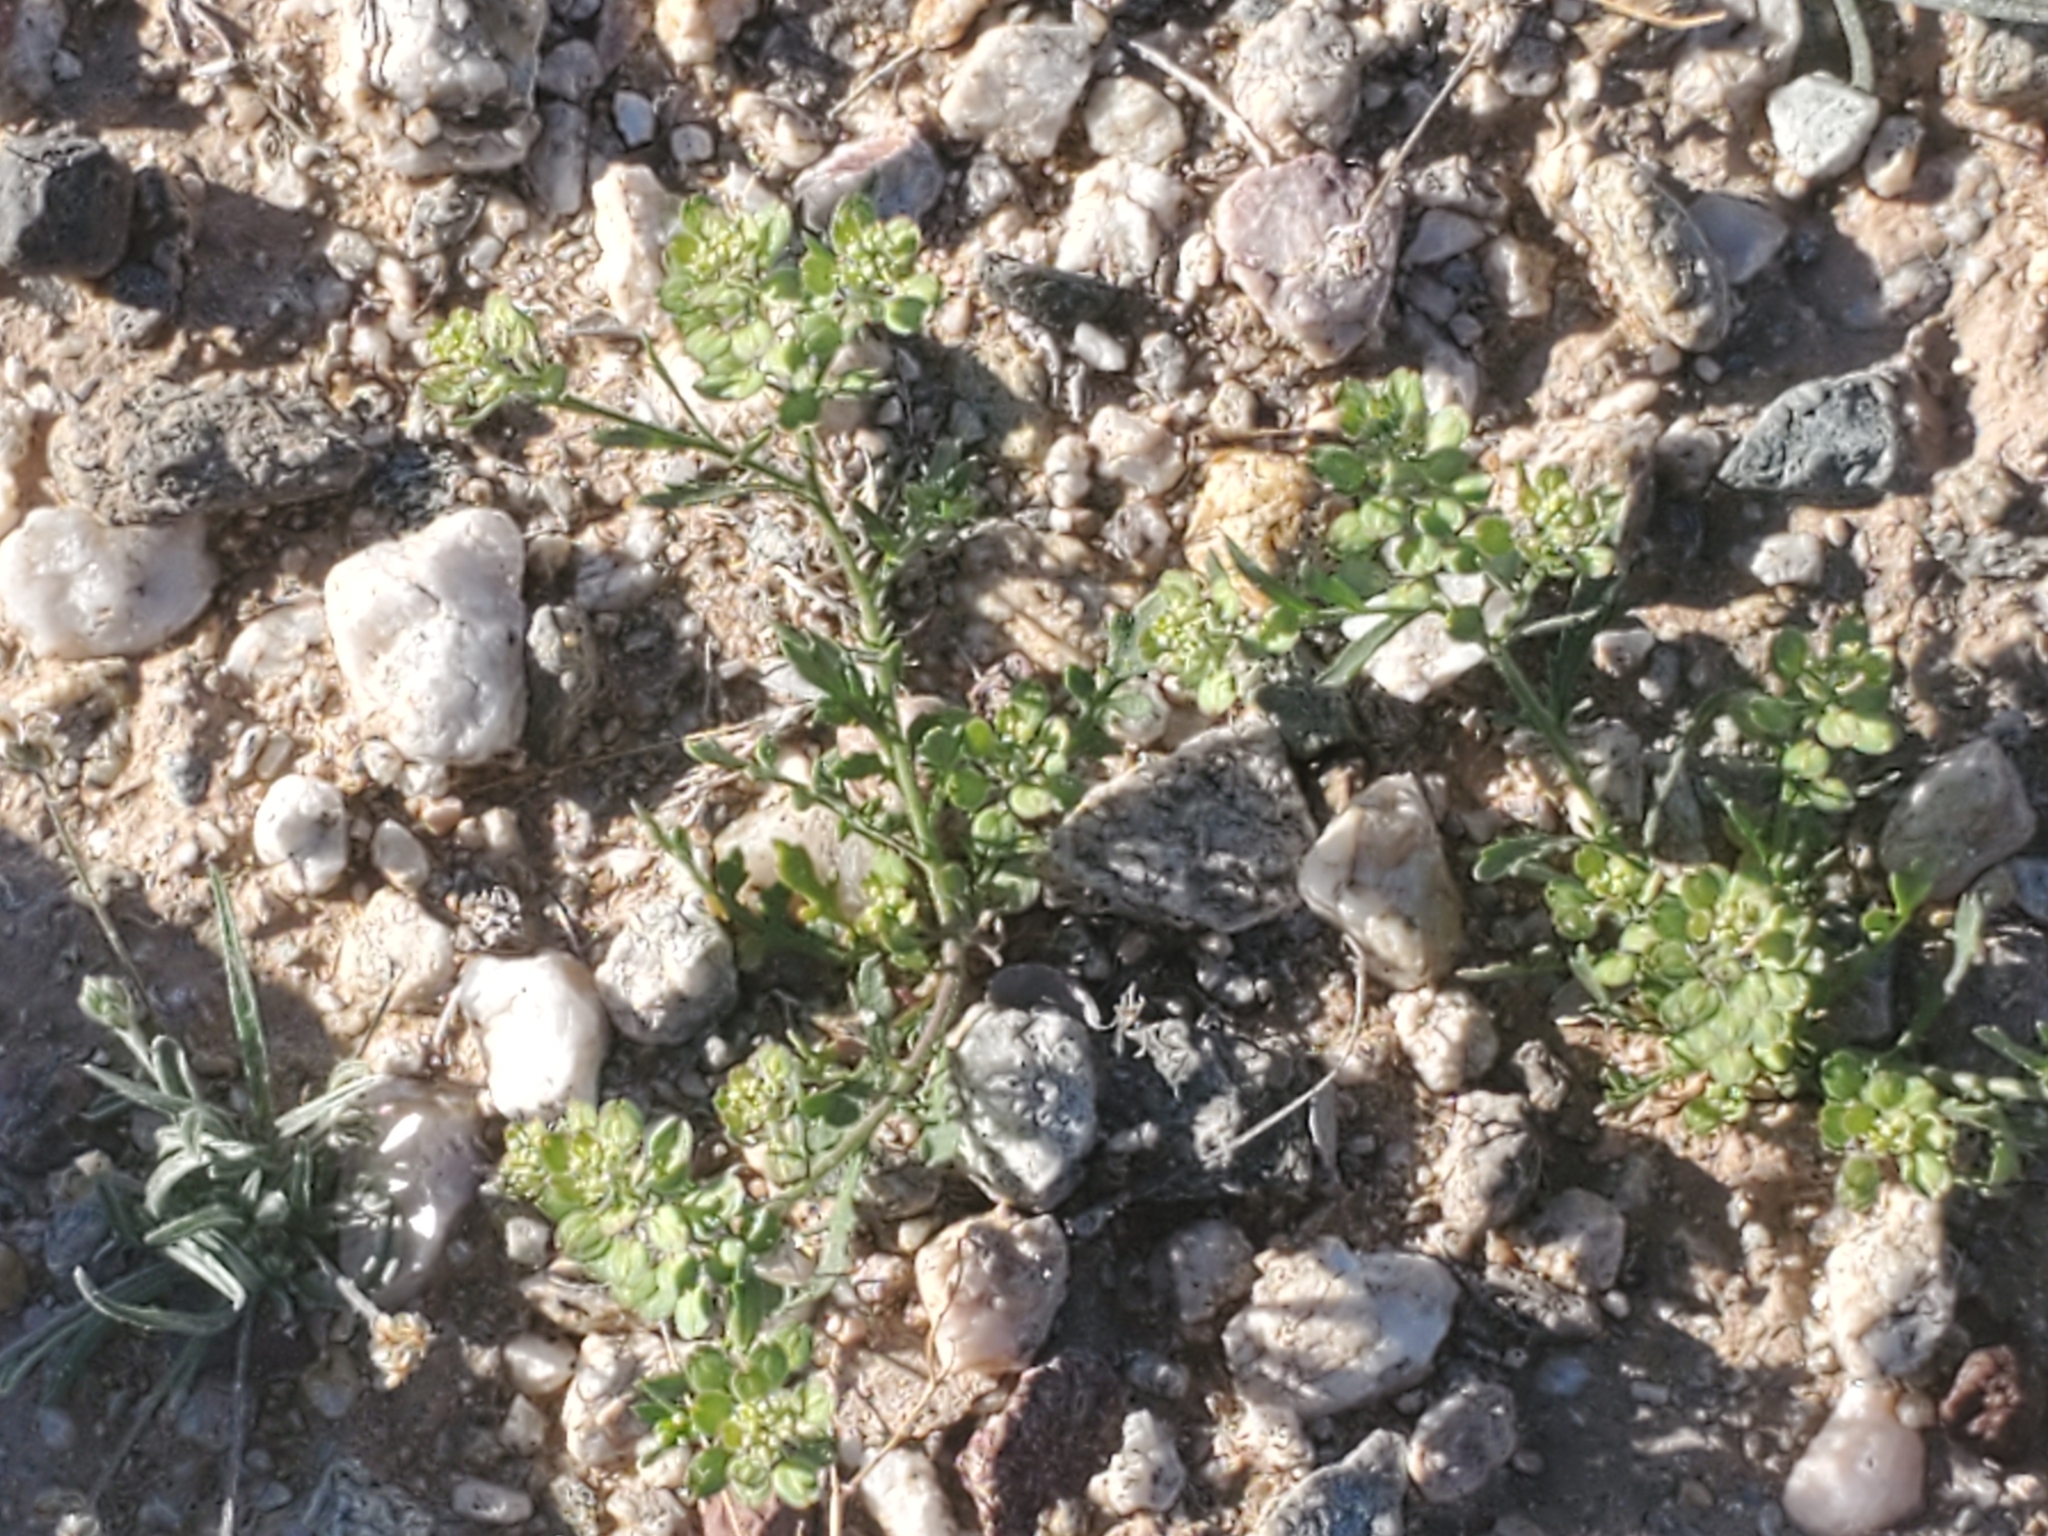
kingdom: Plantae
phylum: Tracheophyta
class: Magnoliopsida
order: Brassicales
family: Brassicaceae
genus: Lepidium
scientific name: Lepidium lasiocarpum
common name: Hairy-pod pepperwort
